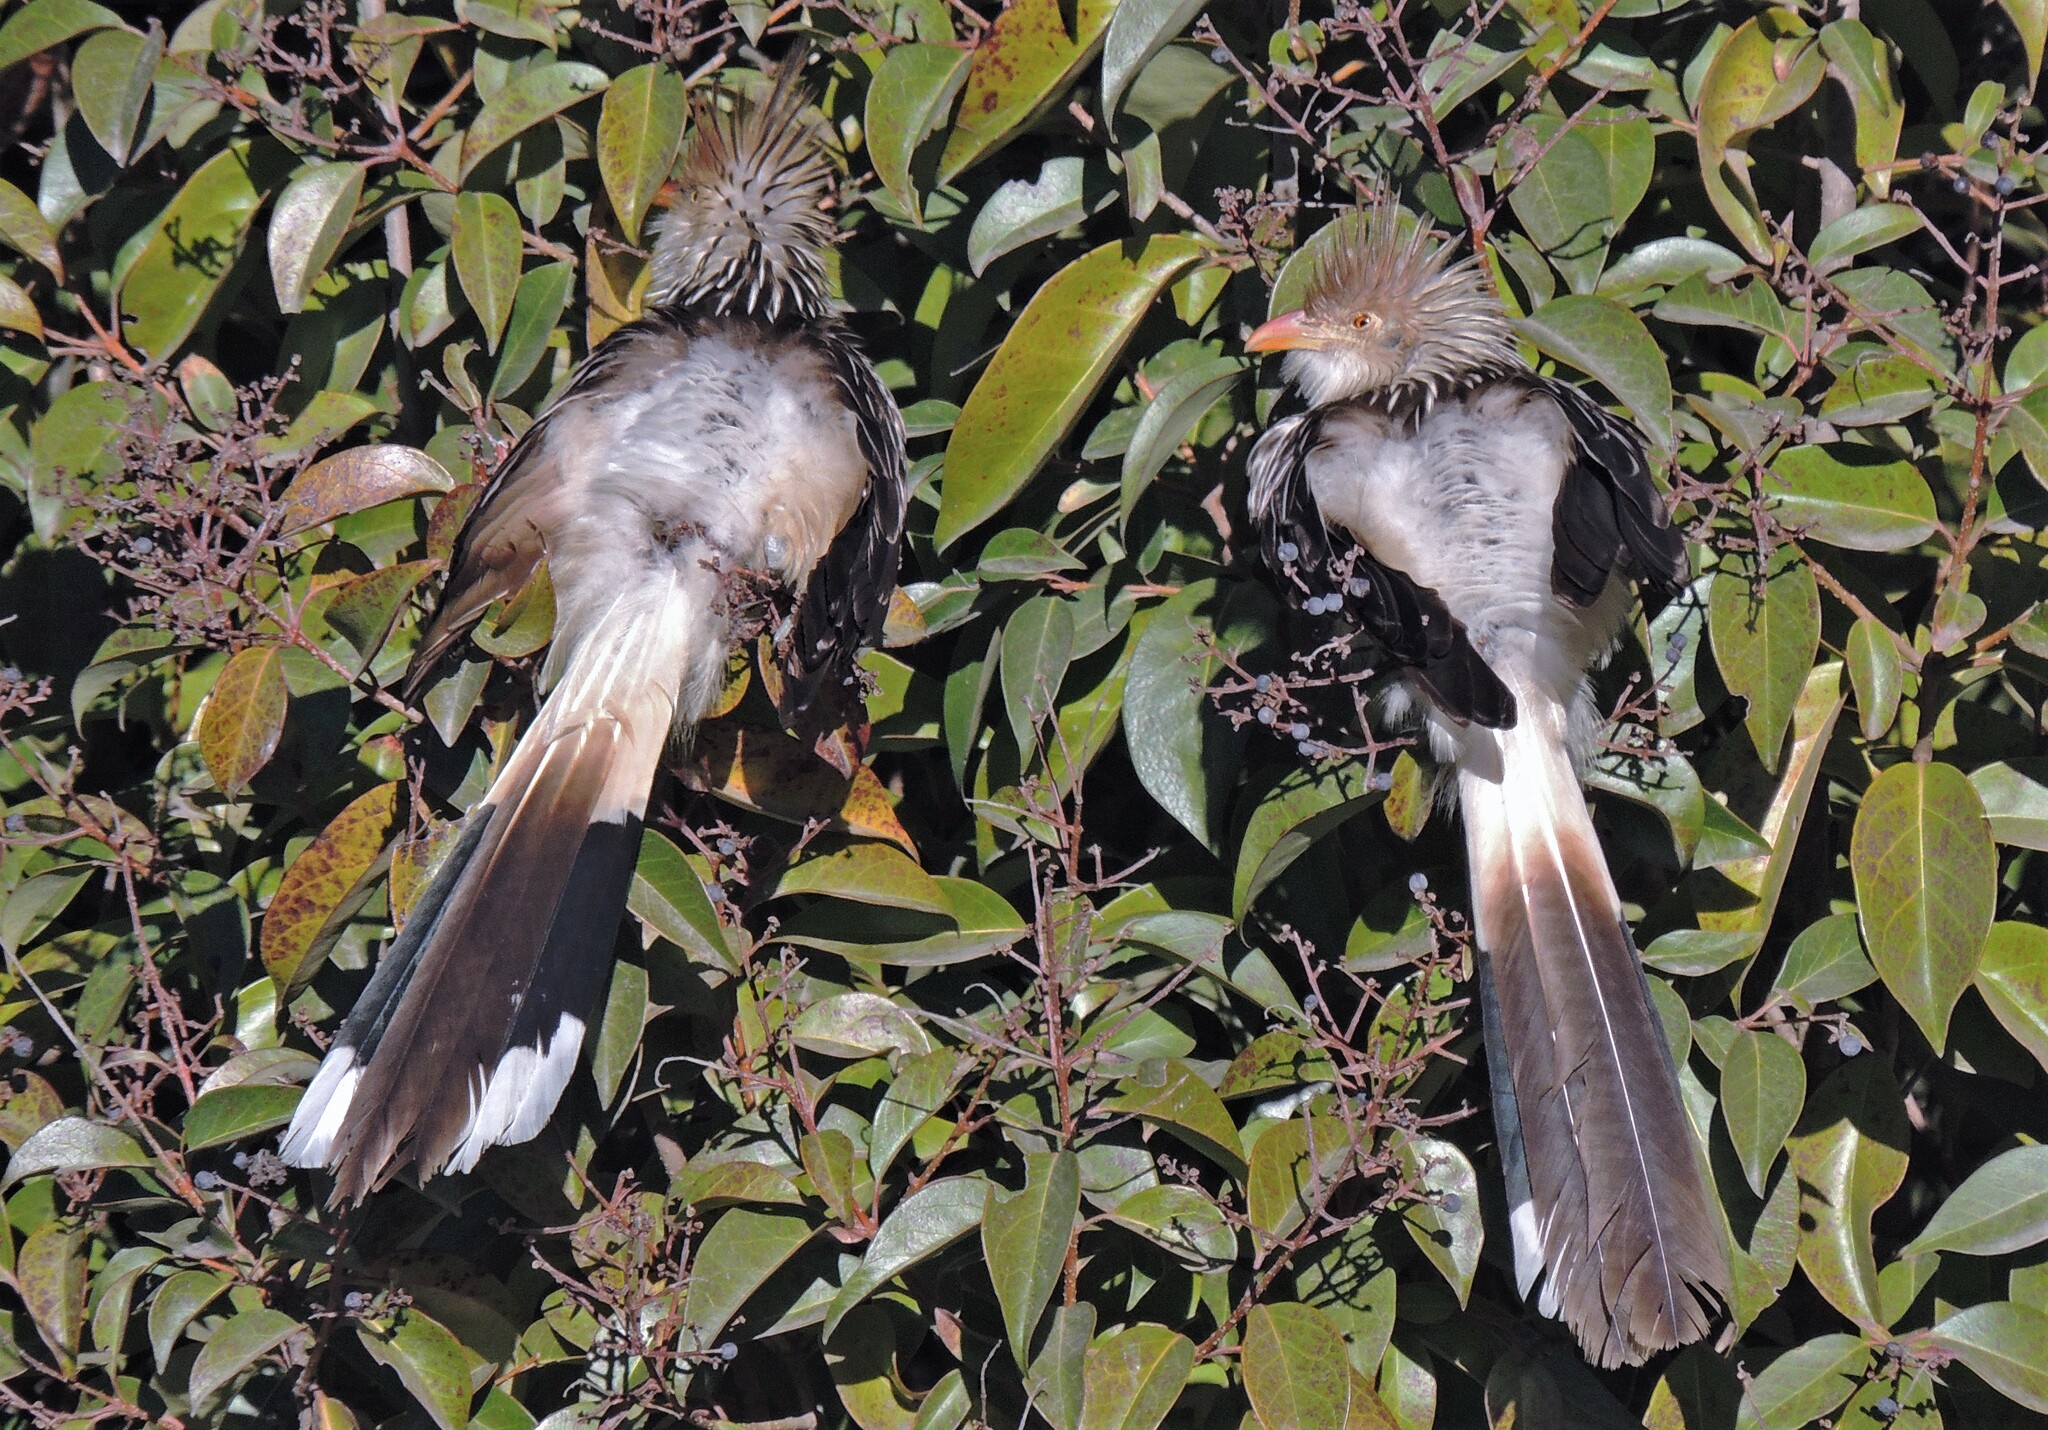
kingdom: Animalia
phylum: Chordata
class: Aves
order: Cuculiformes
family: Cuculidae
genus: Guira
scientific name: Guira guira
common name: Guira cuckoo
